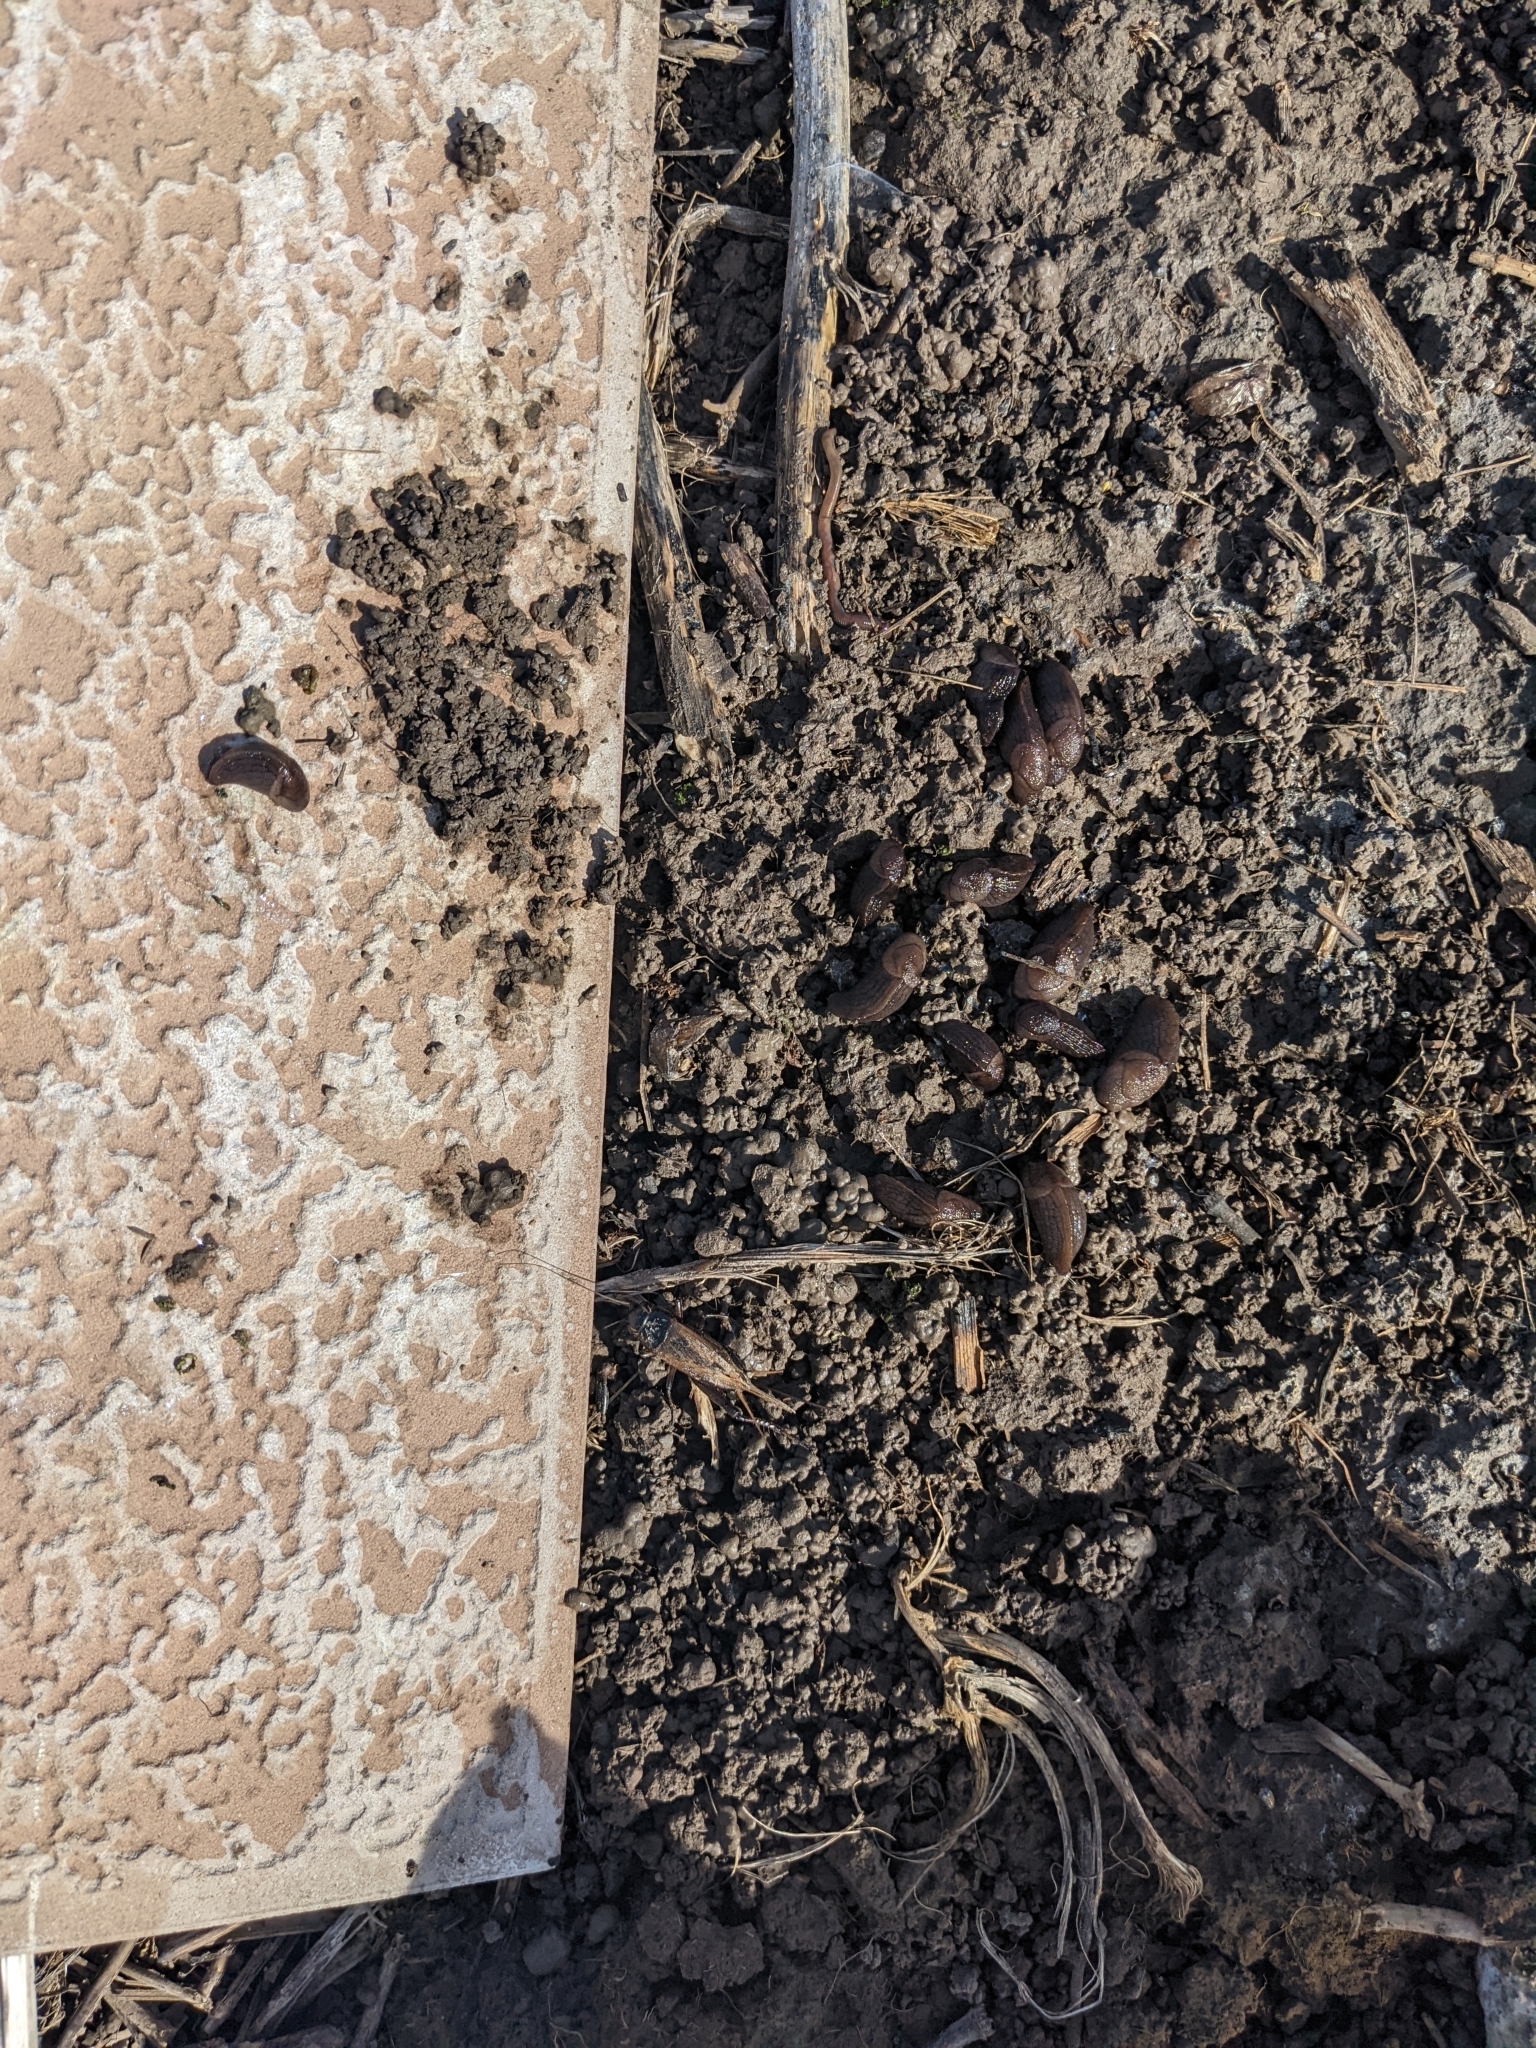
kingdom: Animalia
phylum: Mollusca
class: Gastropoda
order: Stylommatophora
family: Milacidae
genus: Milax
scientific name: Milax gagates
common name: Greenhouse slug
